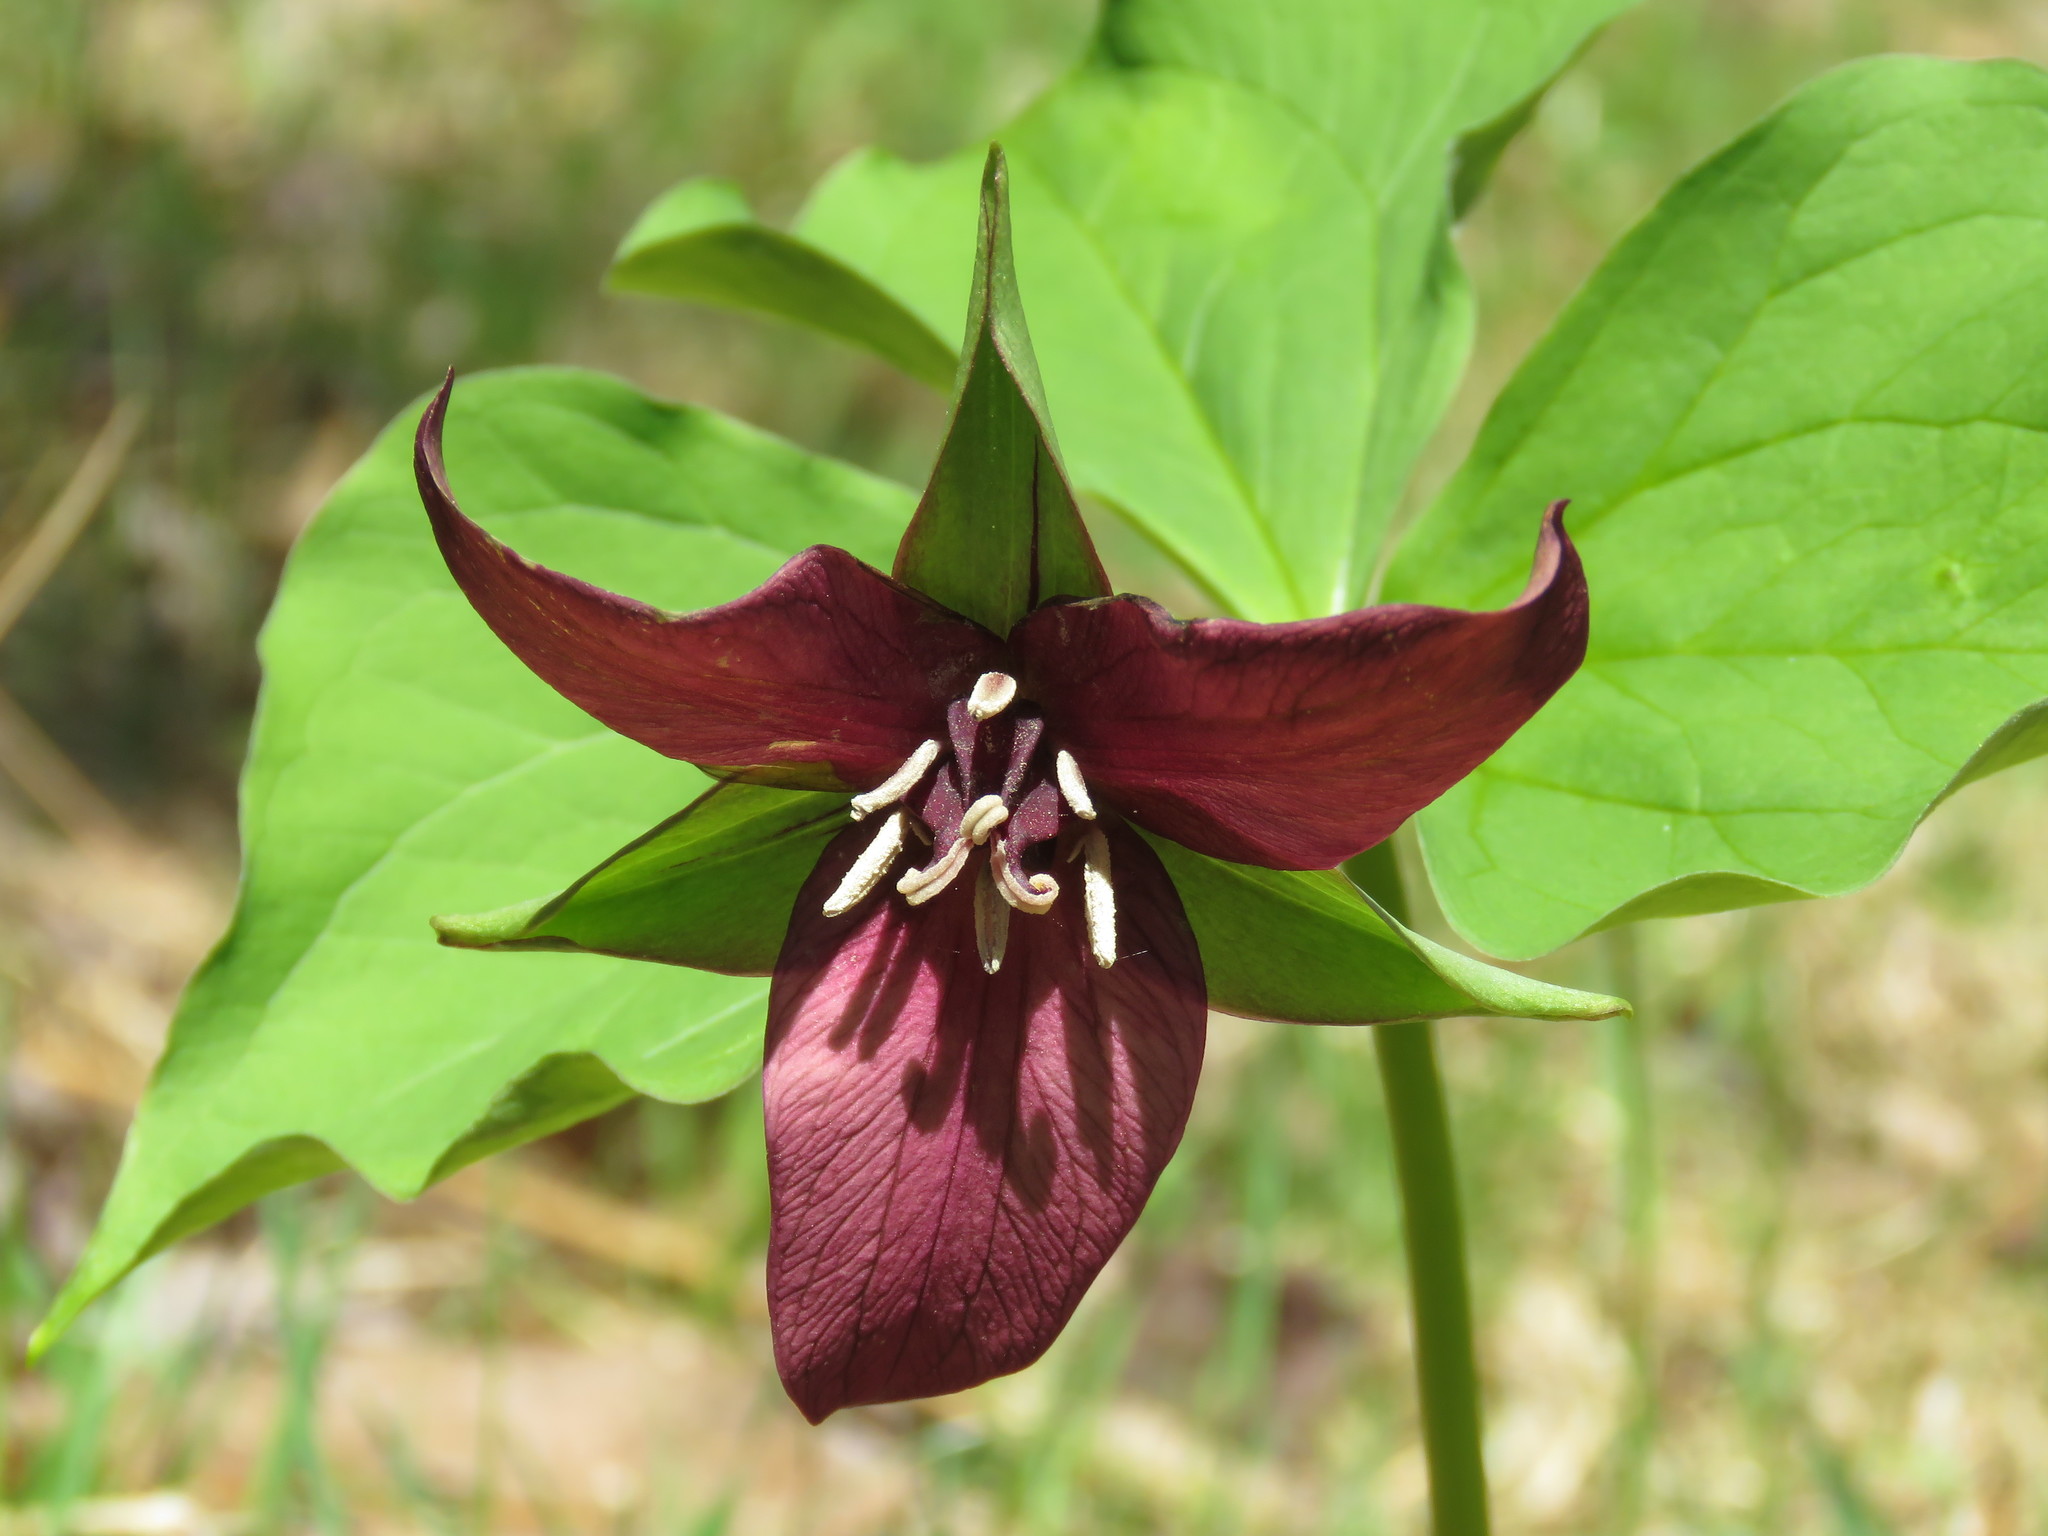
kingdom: Plantae
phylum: Tracheophyta
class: Liliopsida
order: Liliales
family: Melanthiaceae
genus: Trillium
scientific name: Trillium erectum
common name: Purple trillium
